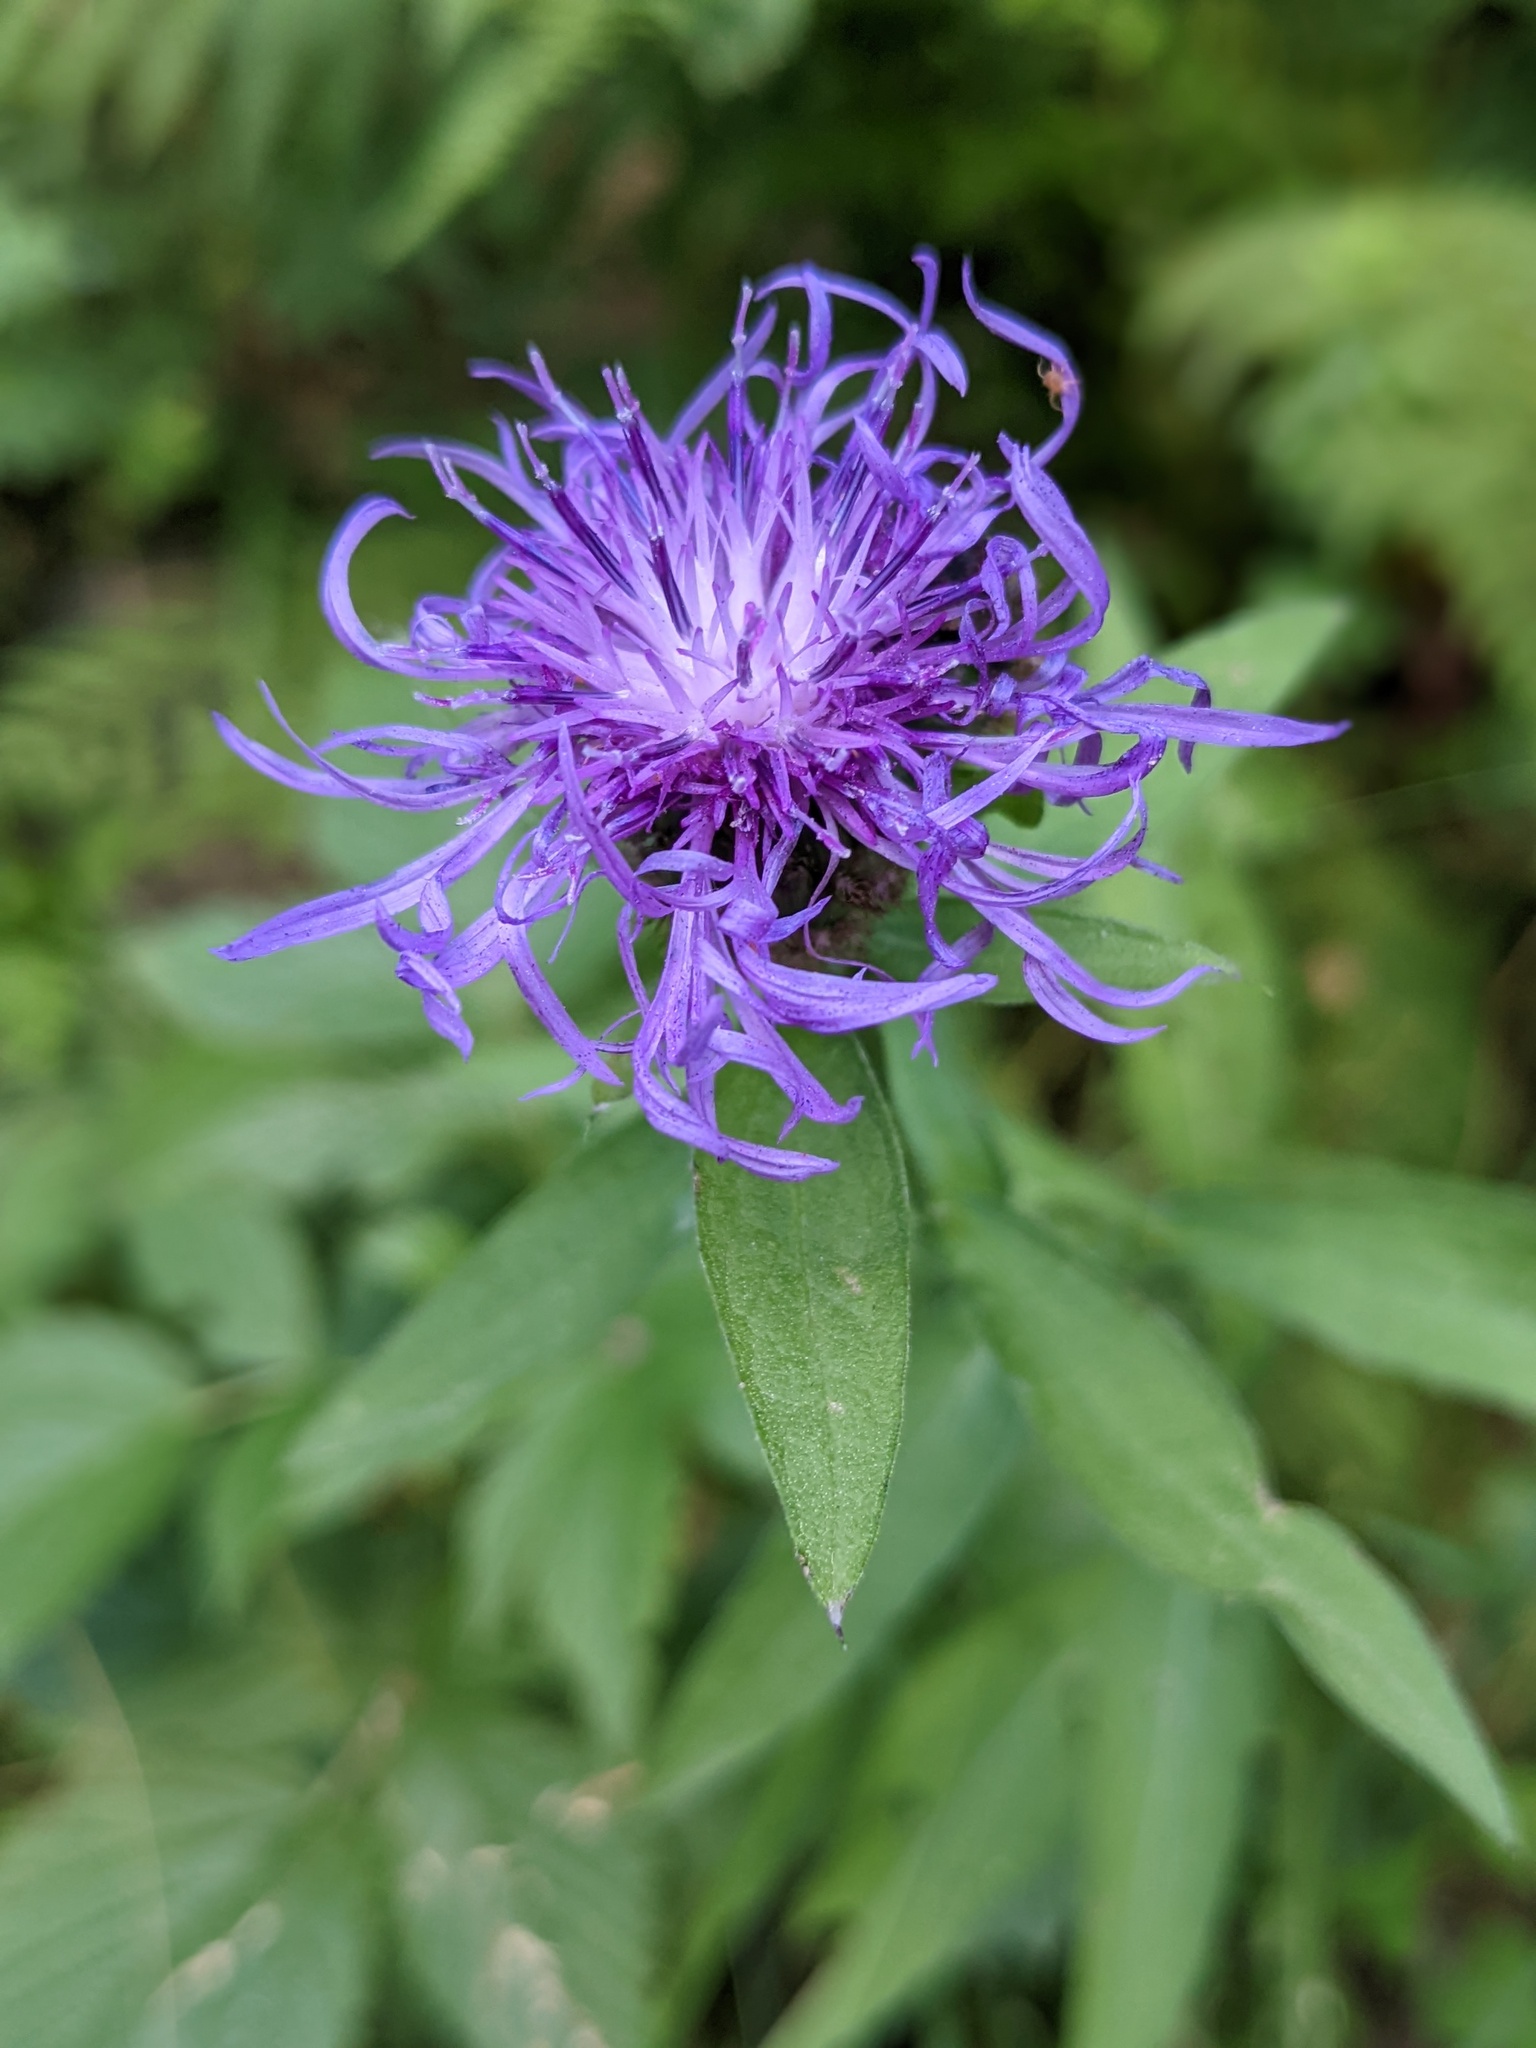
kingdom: Plantae
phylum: Tracheophyta
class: Magnoliopsida
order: Asterales
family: Asteraceae
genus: Centaurea
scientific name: Centaurea nigrescens
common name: Tyrol knapweed
